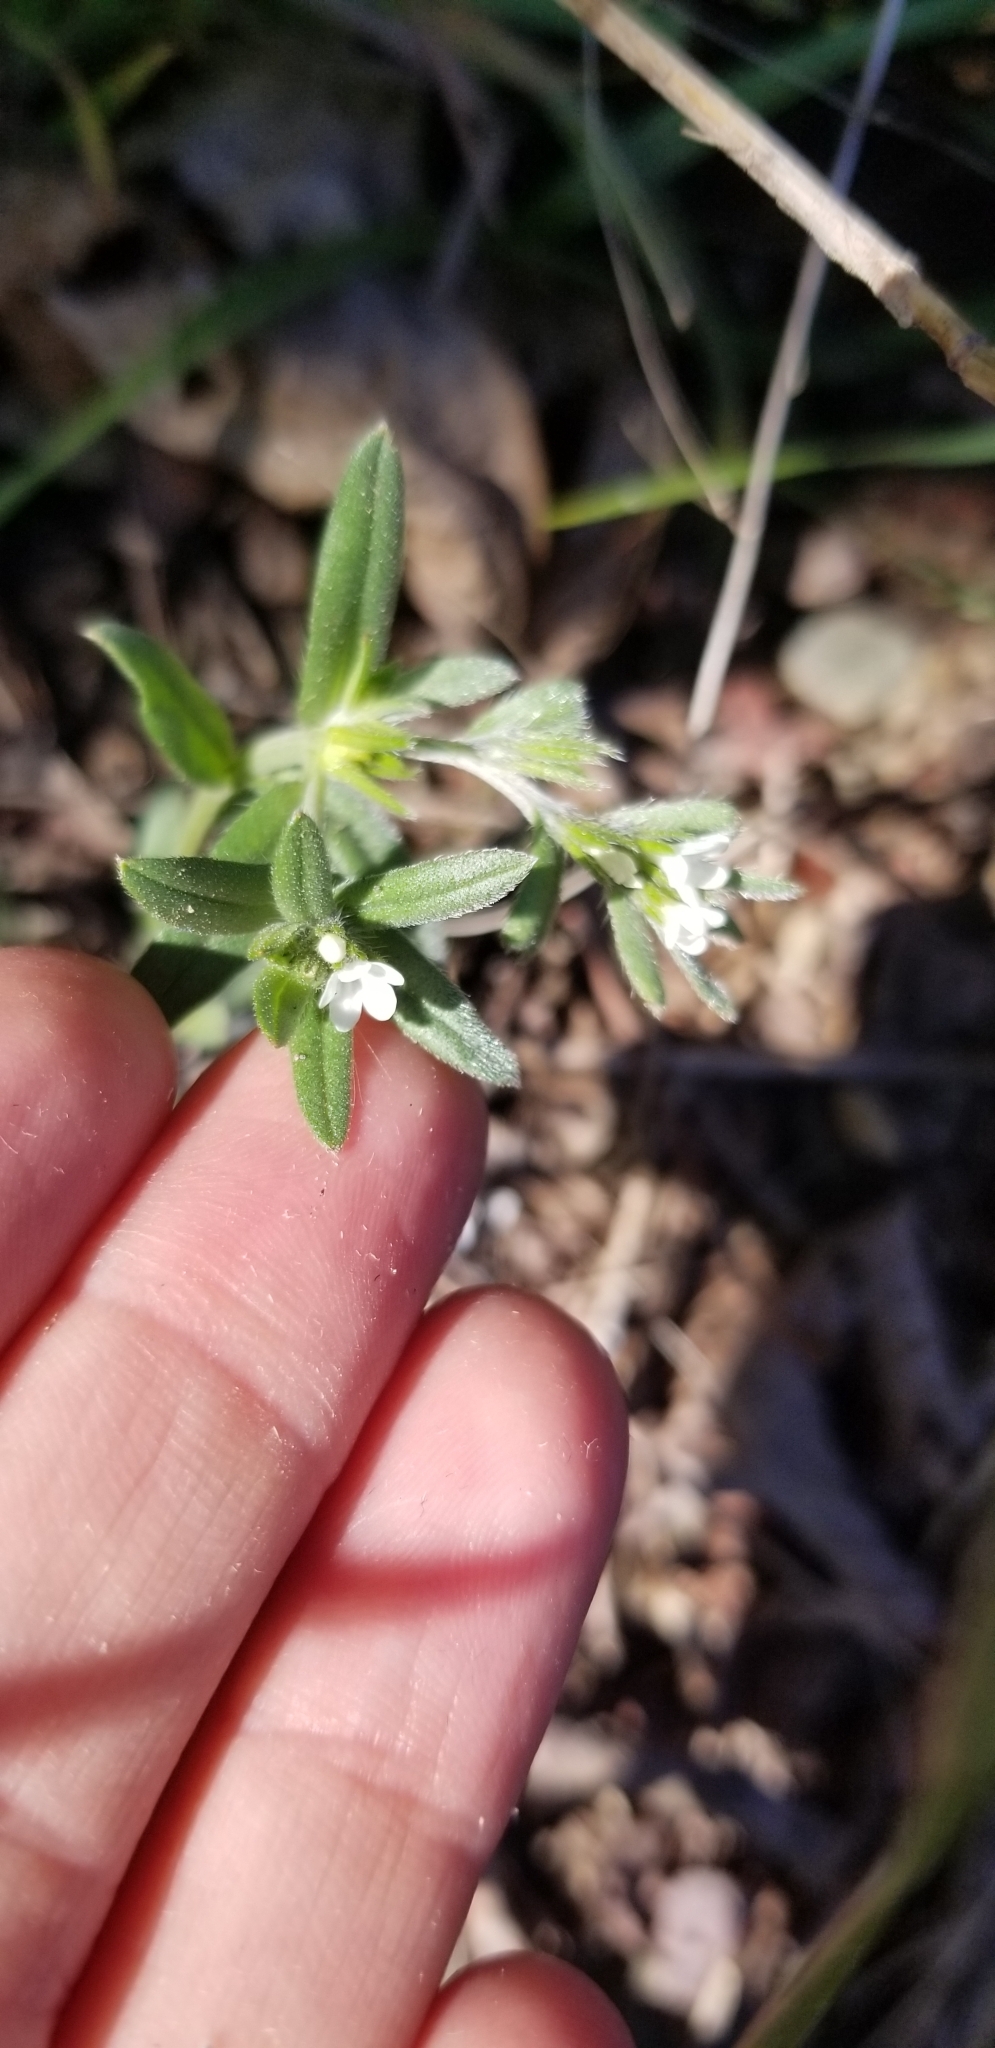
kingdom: Plantae
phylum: Tracheophyta
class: Magnoliopsida
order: Boraginales
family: Boraginaceae
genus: Buglossoides
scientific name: Buglossoides arvensis
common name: Corn gromwell
